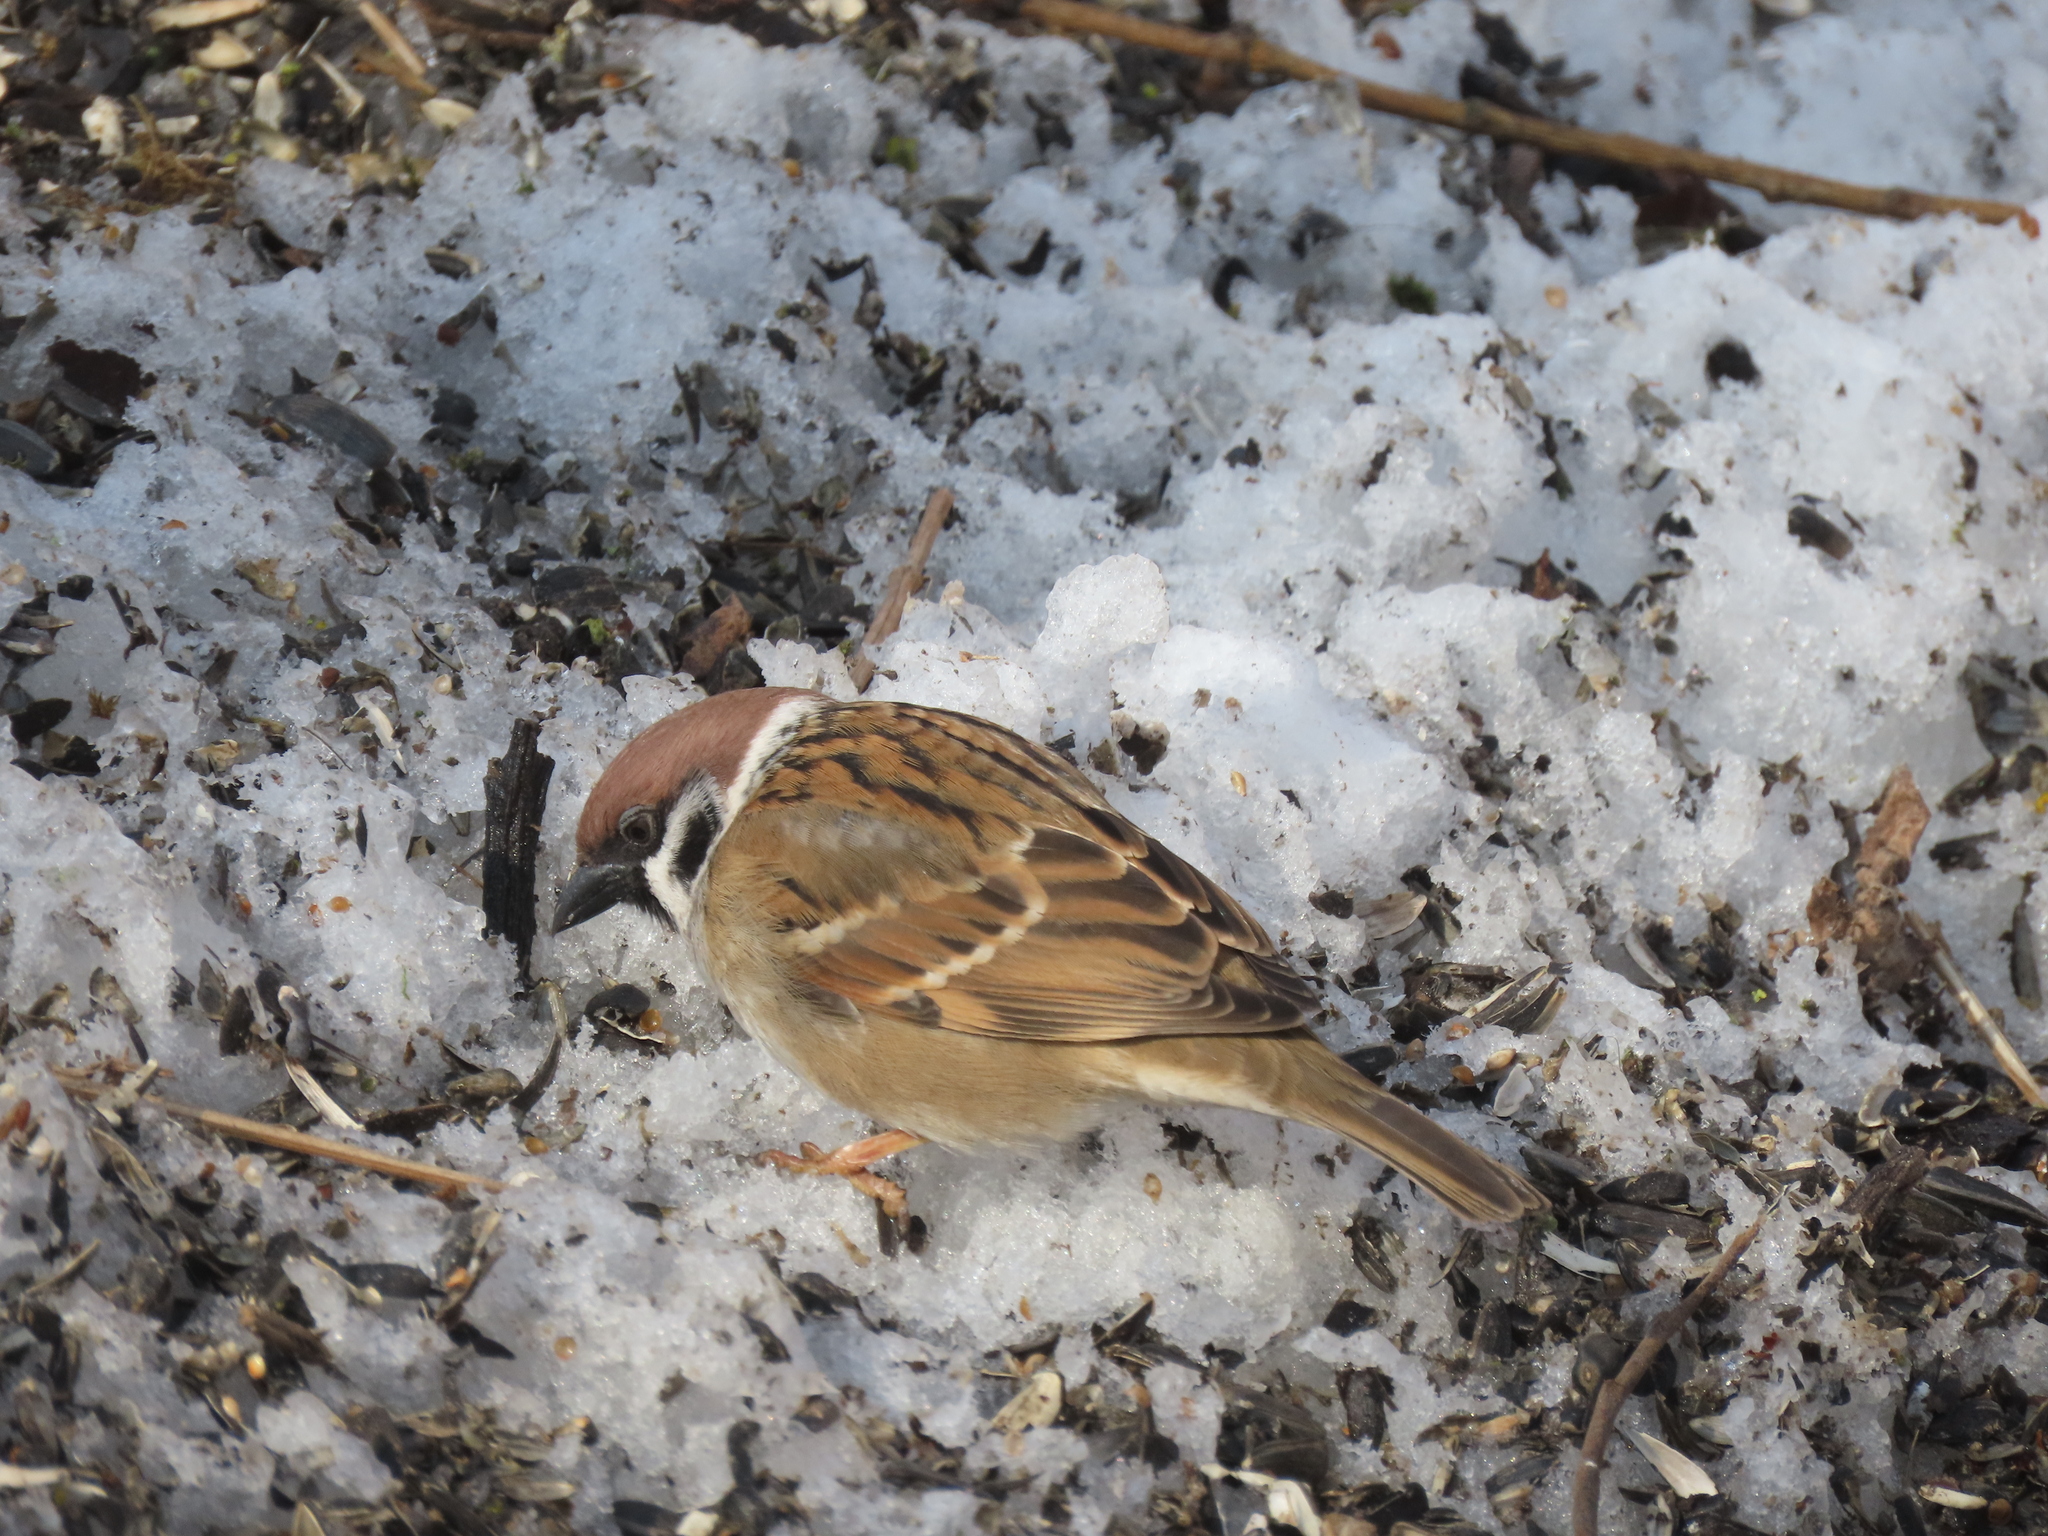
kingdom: Animalia
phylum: Chordata
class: Aves
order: Passeriformes
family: Passeridae
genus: Passer
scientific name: Passer montanus
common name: Eurasian tree sparrow
